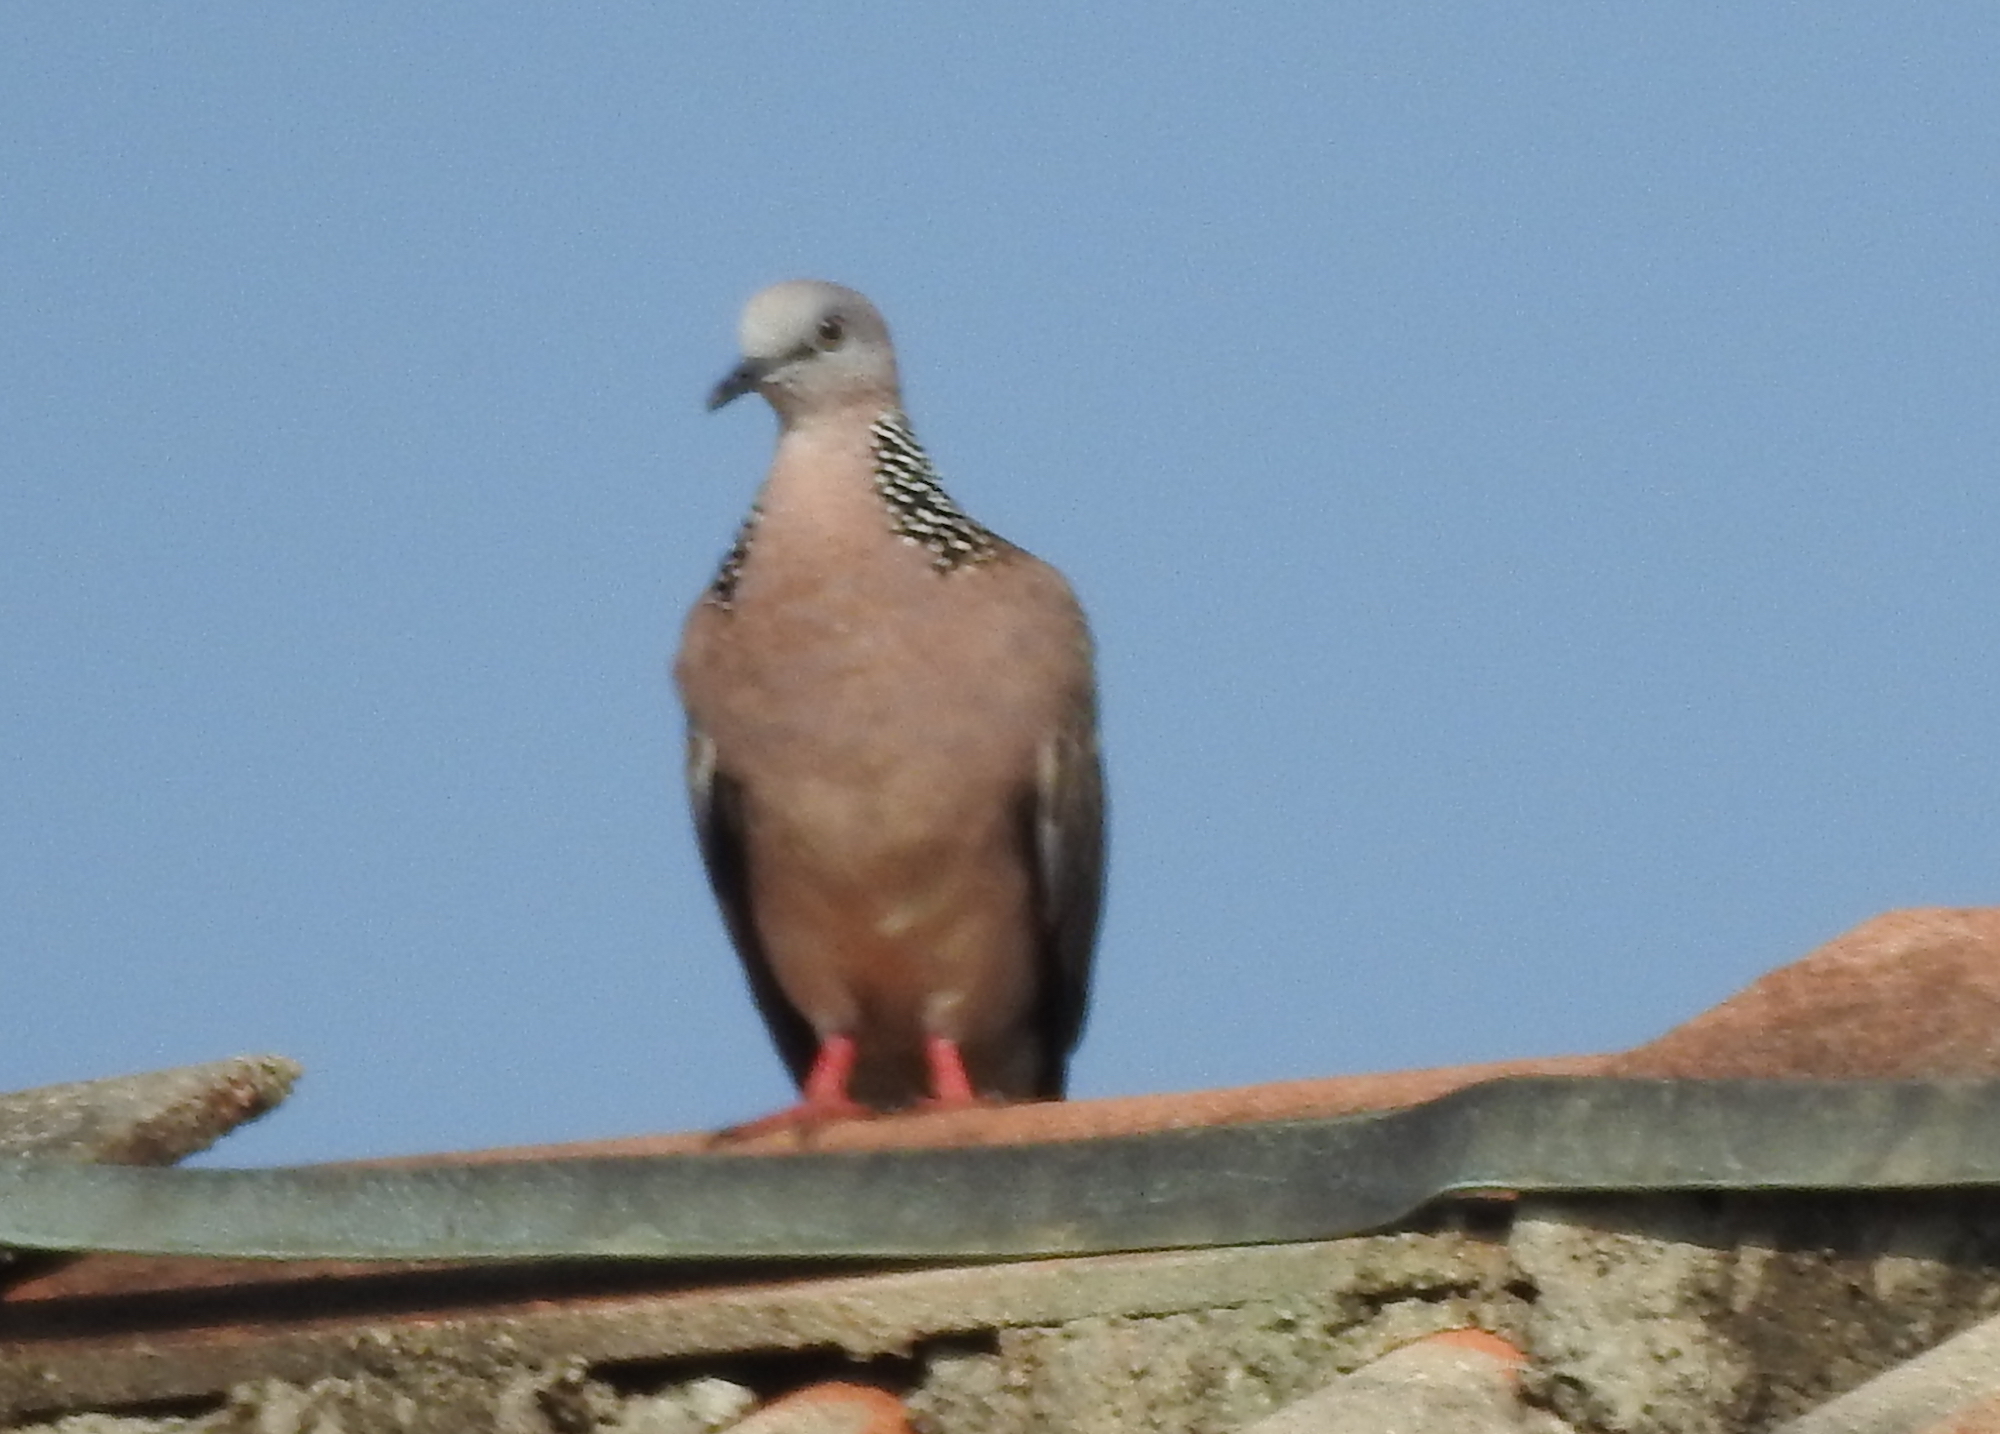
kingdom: Animalia
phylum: Chordata
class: Aves
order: Columbiformes
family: Columbidae
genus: Spilopelia
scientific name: Spilopelia chinensis
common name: Spotted dove
